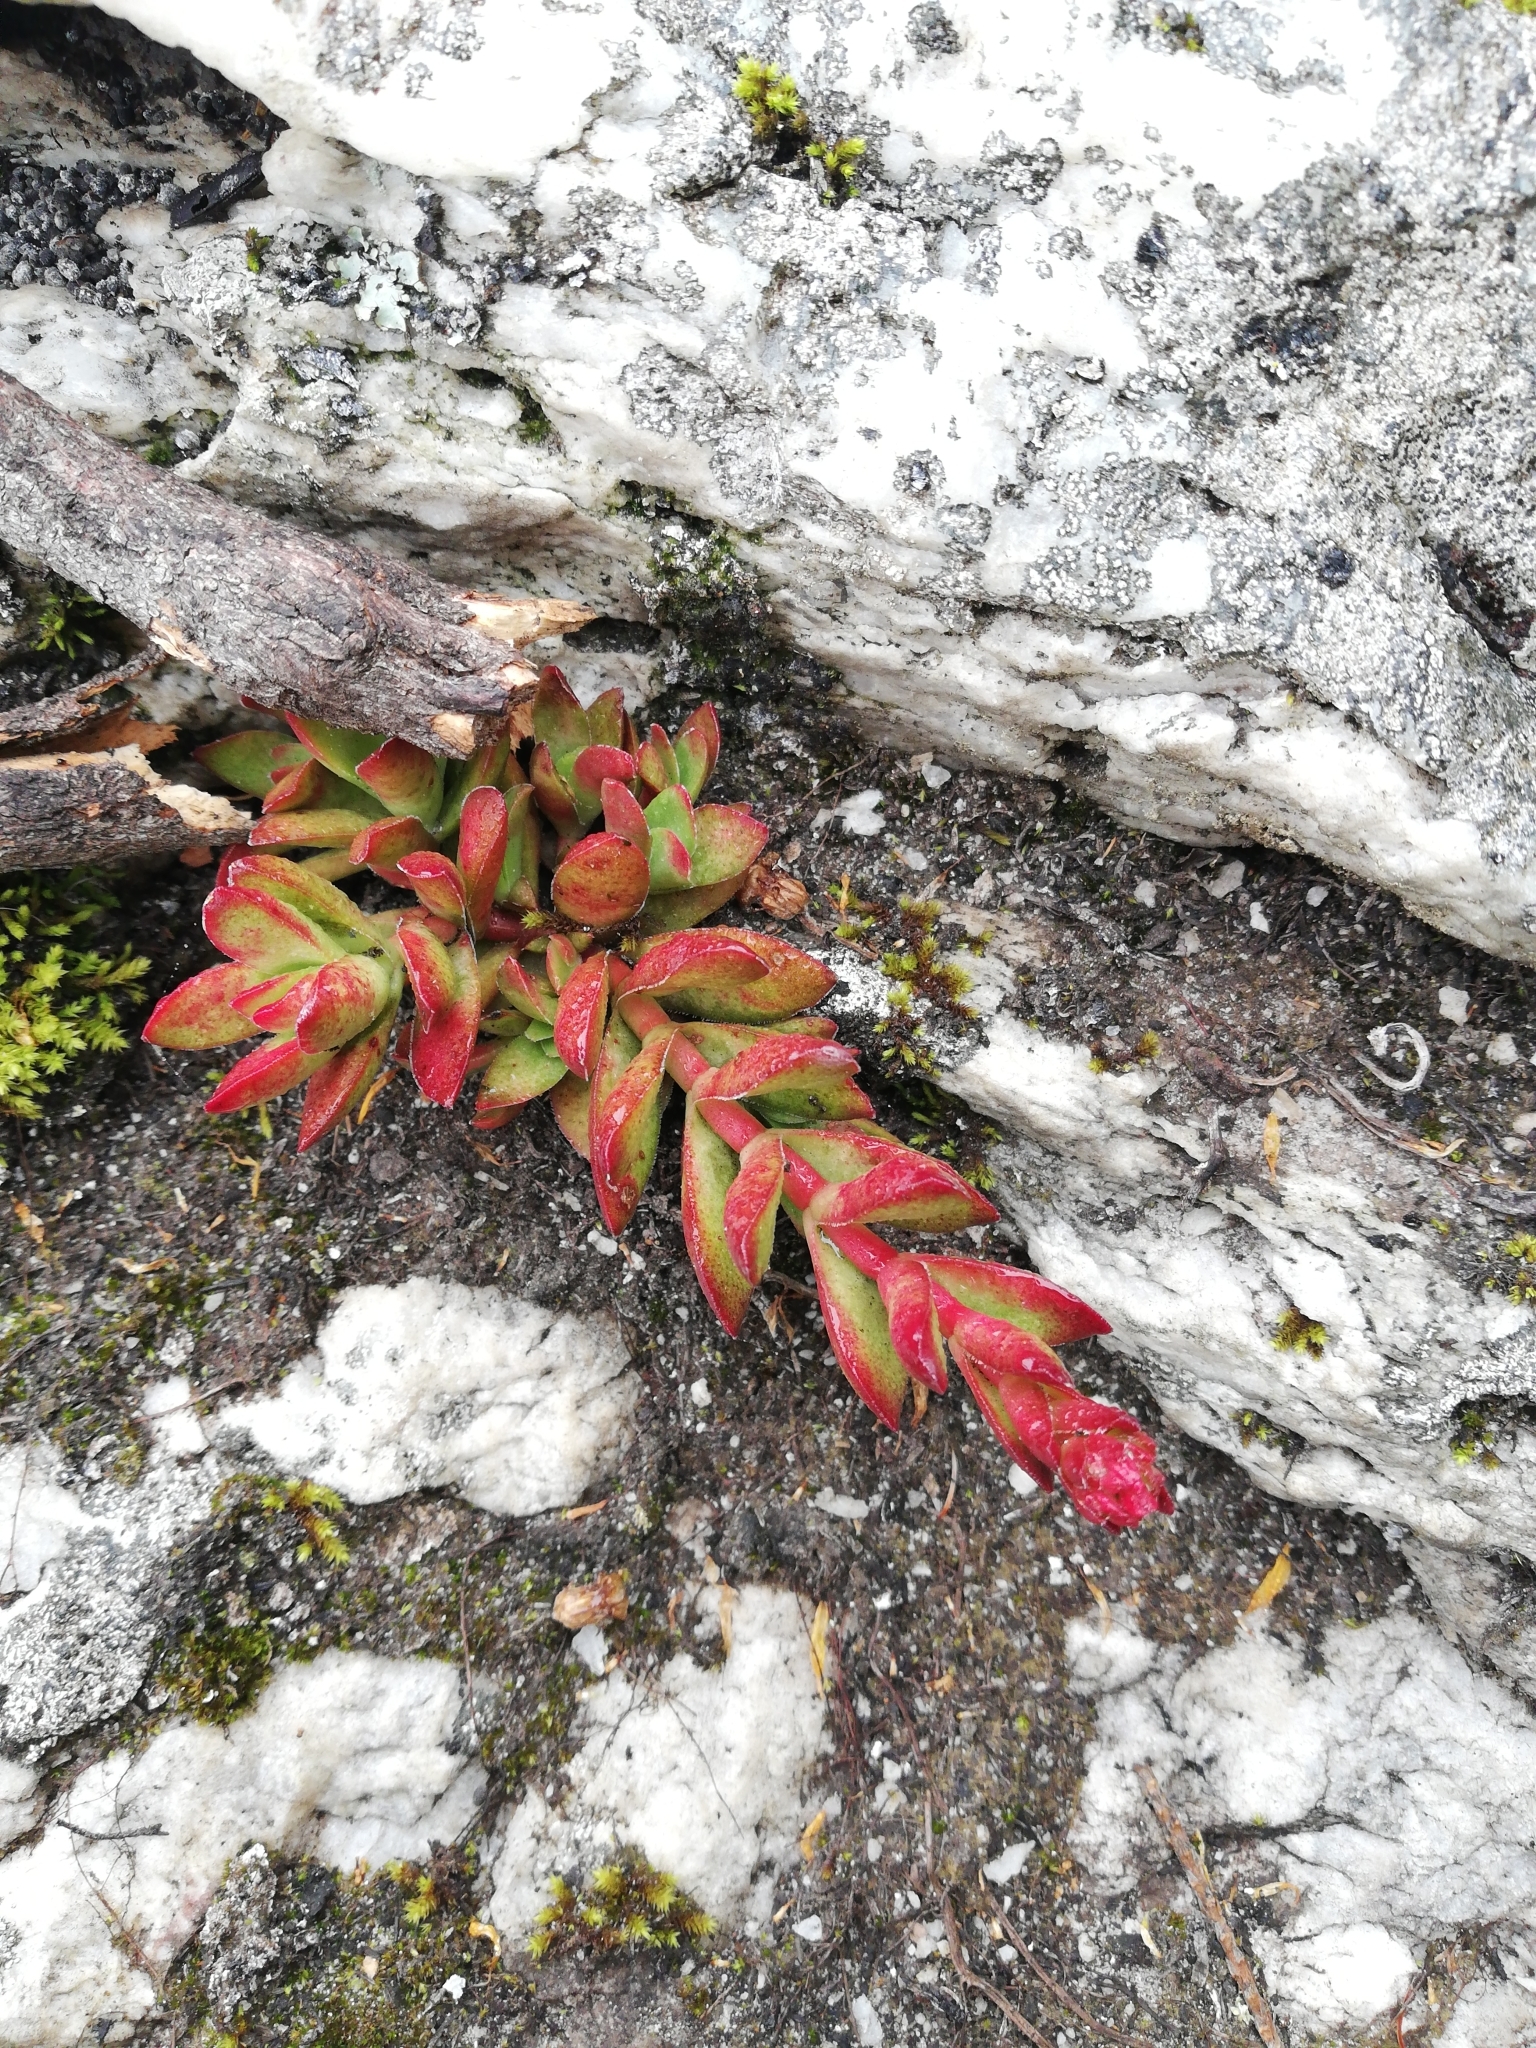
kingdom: Plantae
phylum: Tracheophyta
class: Magnoliopsida
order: Saxifragales
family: Crassulaceae
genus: Crassula
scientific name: Crassula rubricaulis
